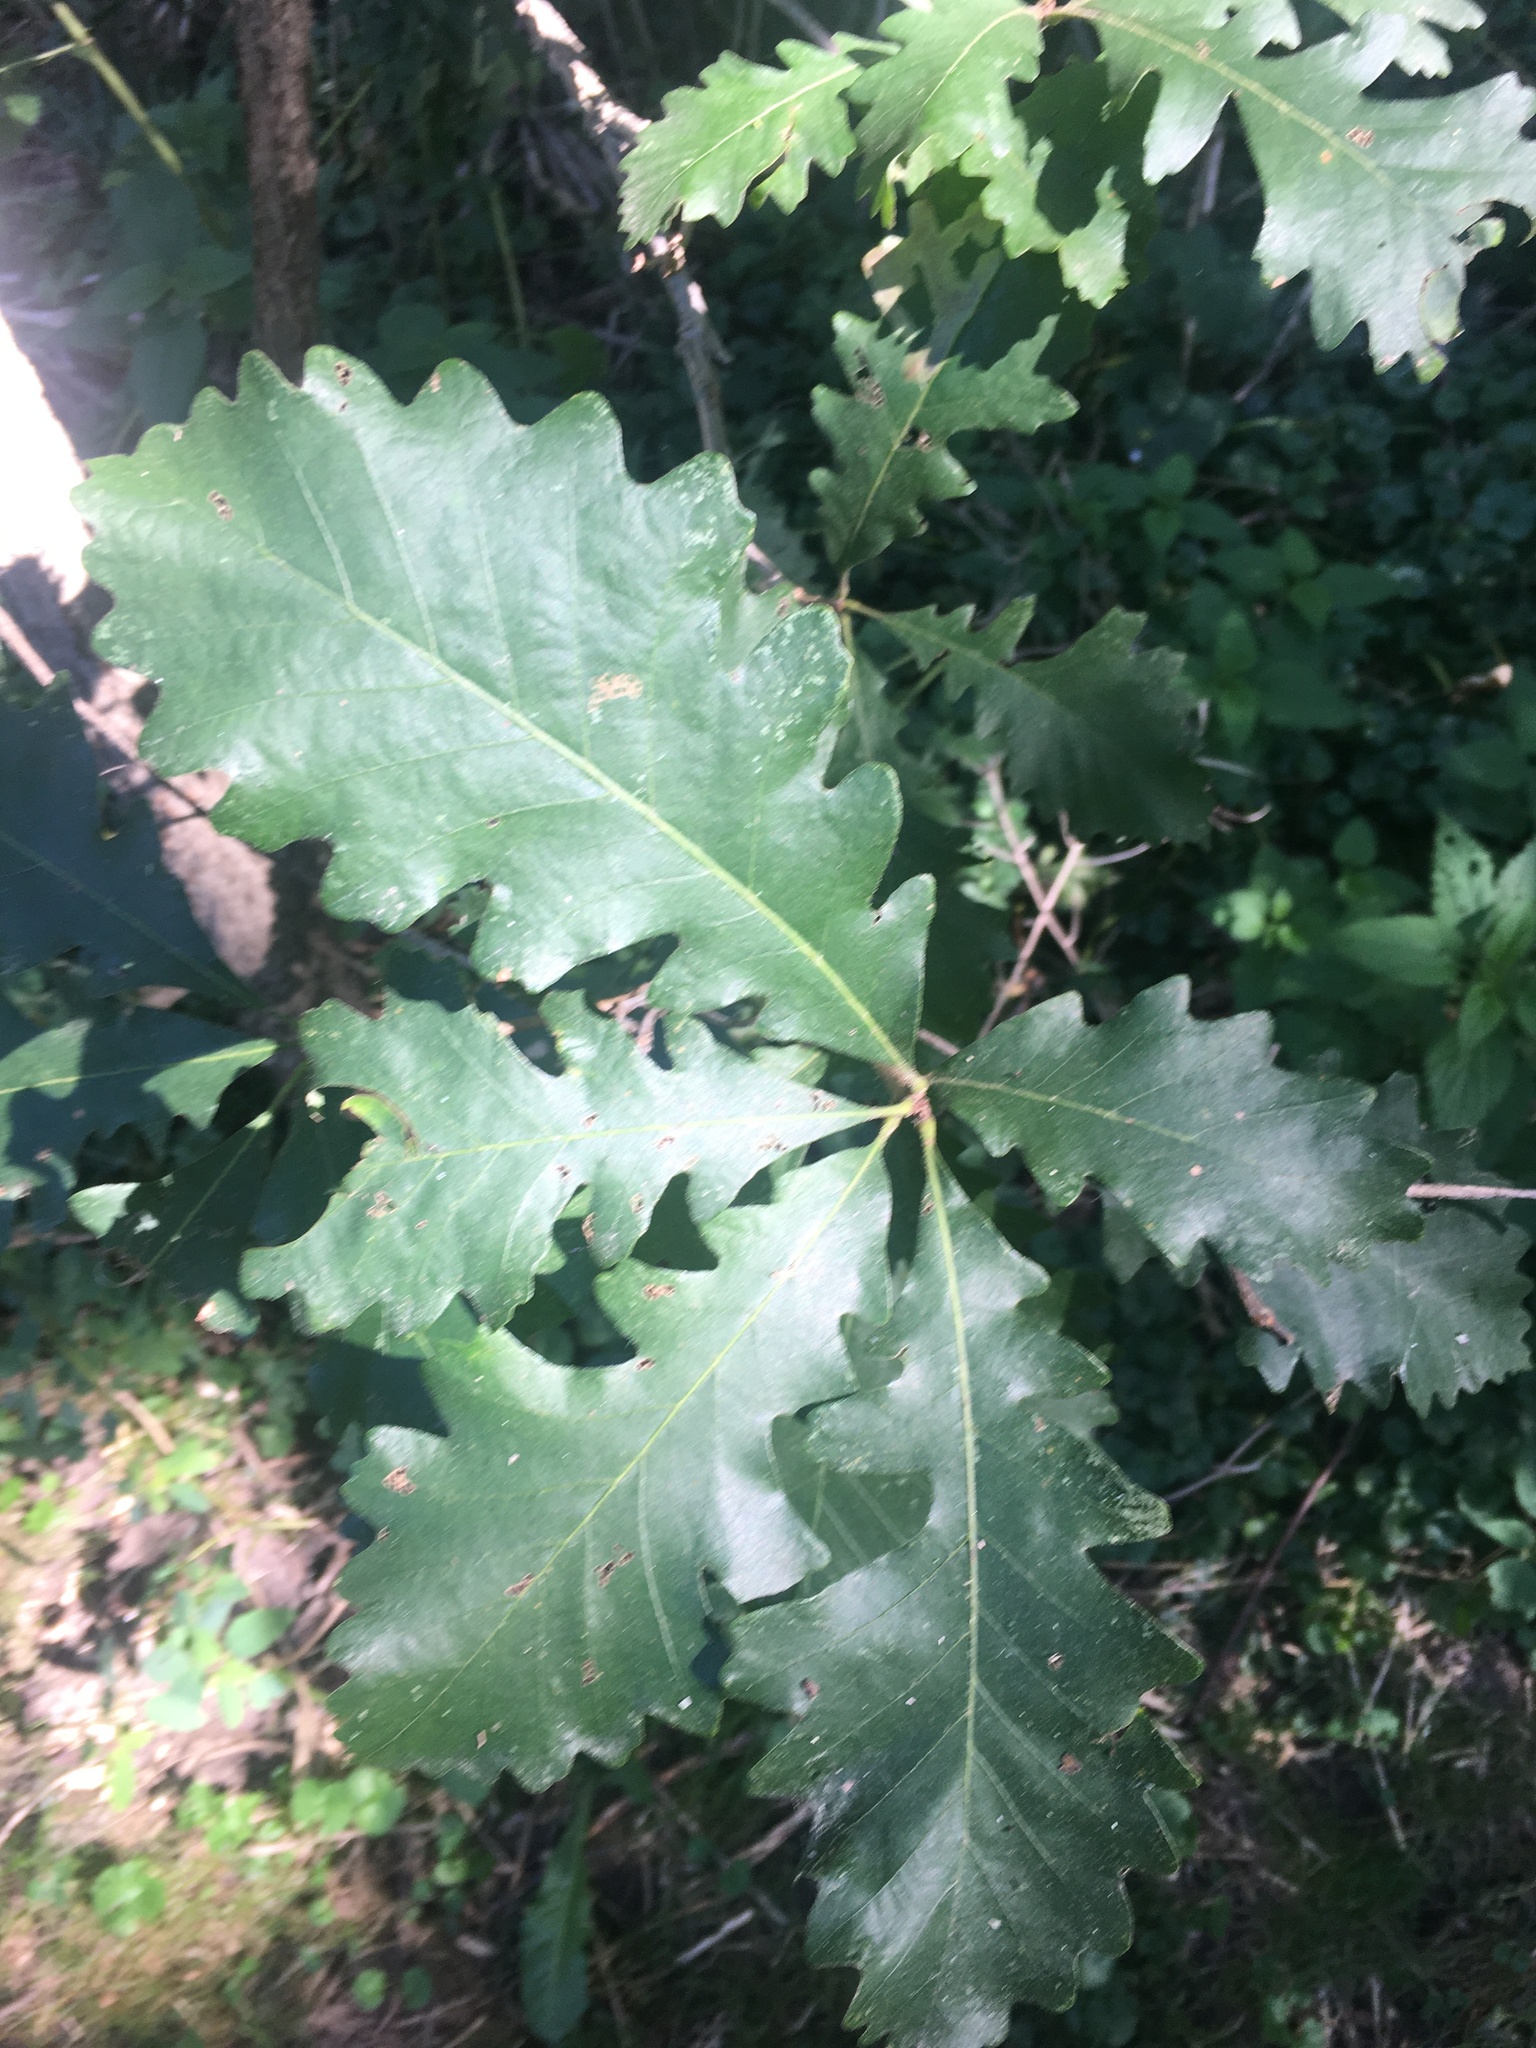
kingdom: Plantae
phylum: Tracheophyta
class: Magnoliopsida
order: Fagales
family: Fagaceae
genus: Quercus
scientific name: Quercus macrocarpa
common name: Bur oak
